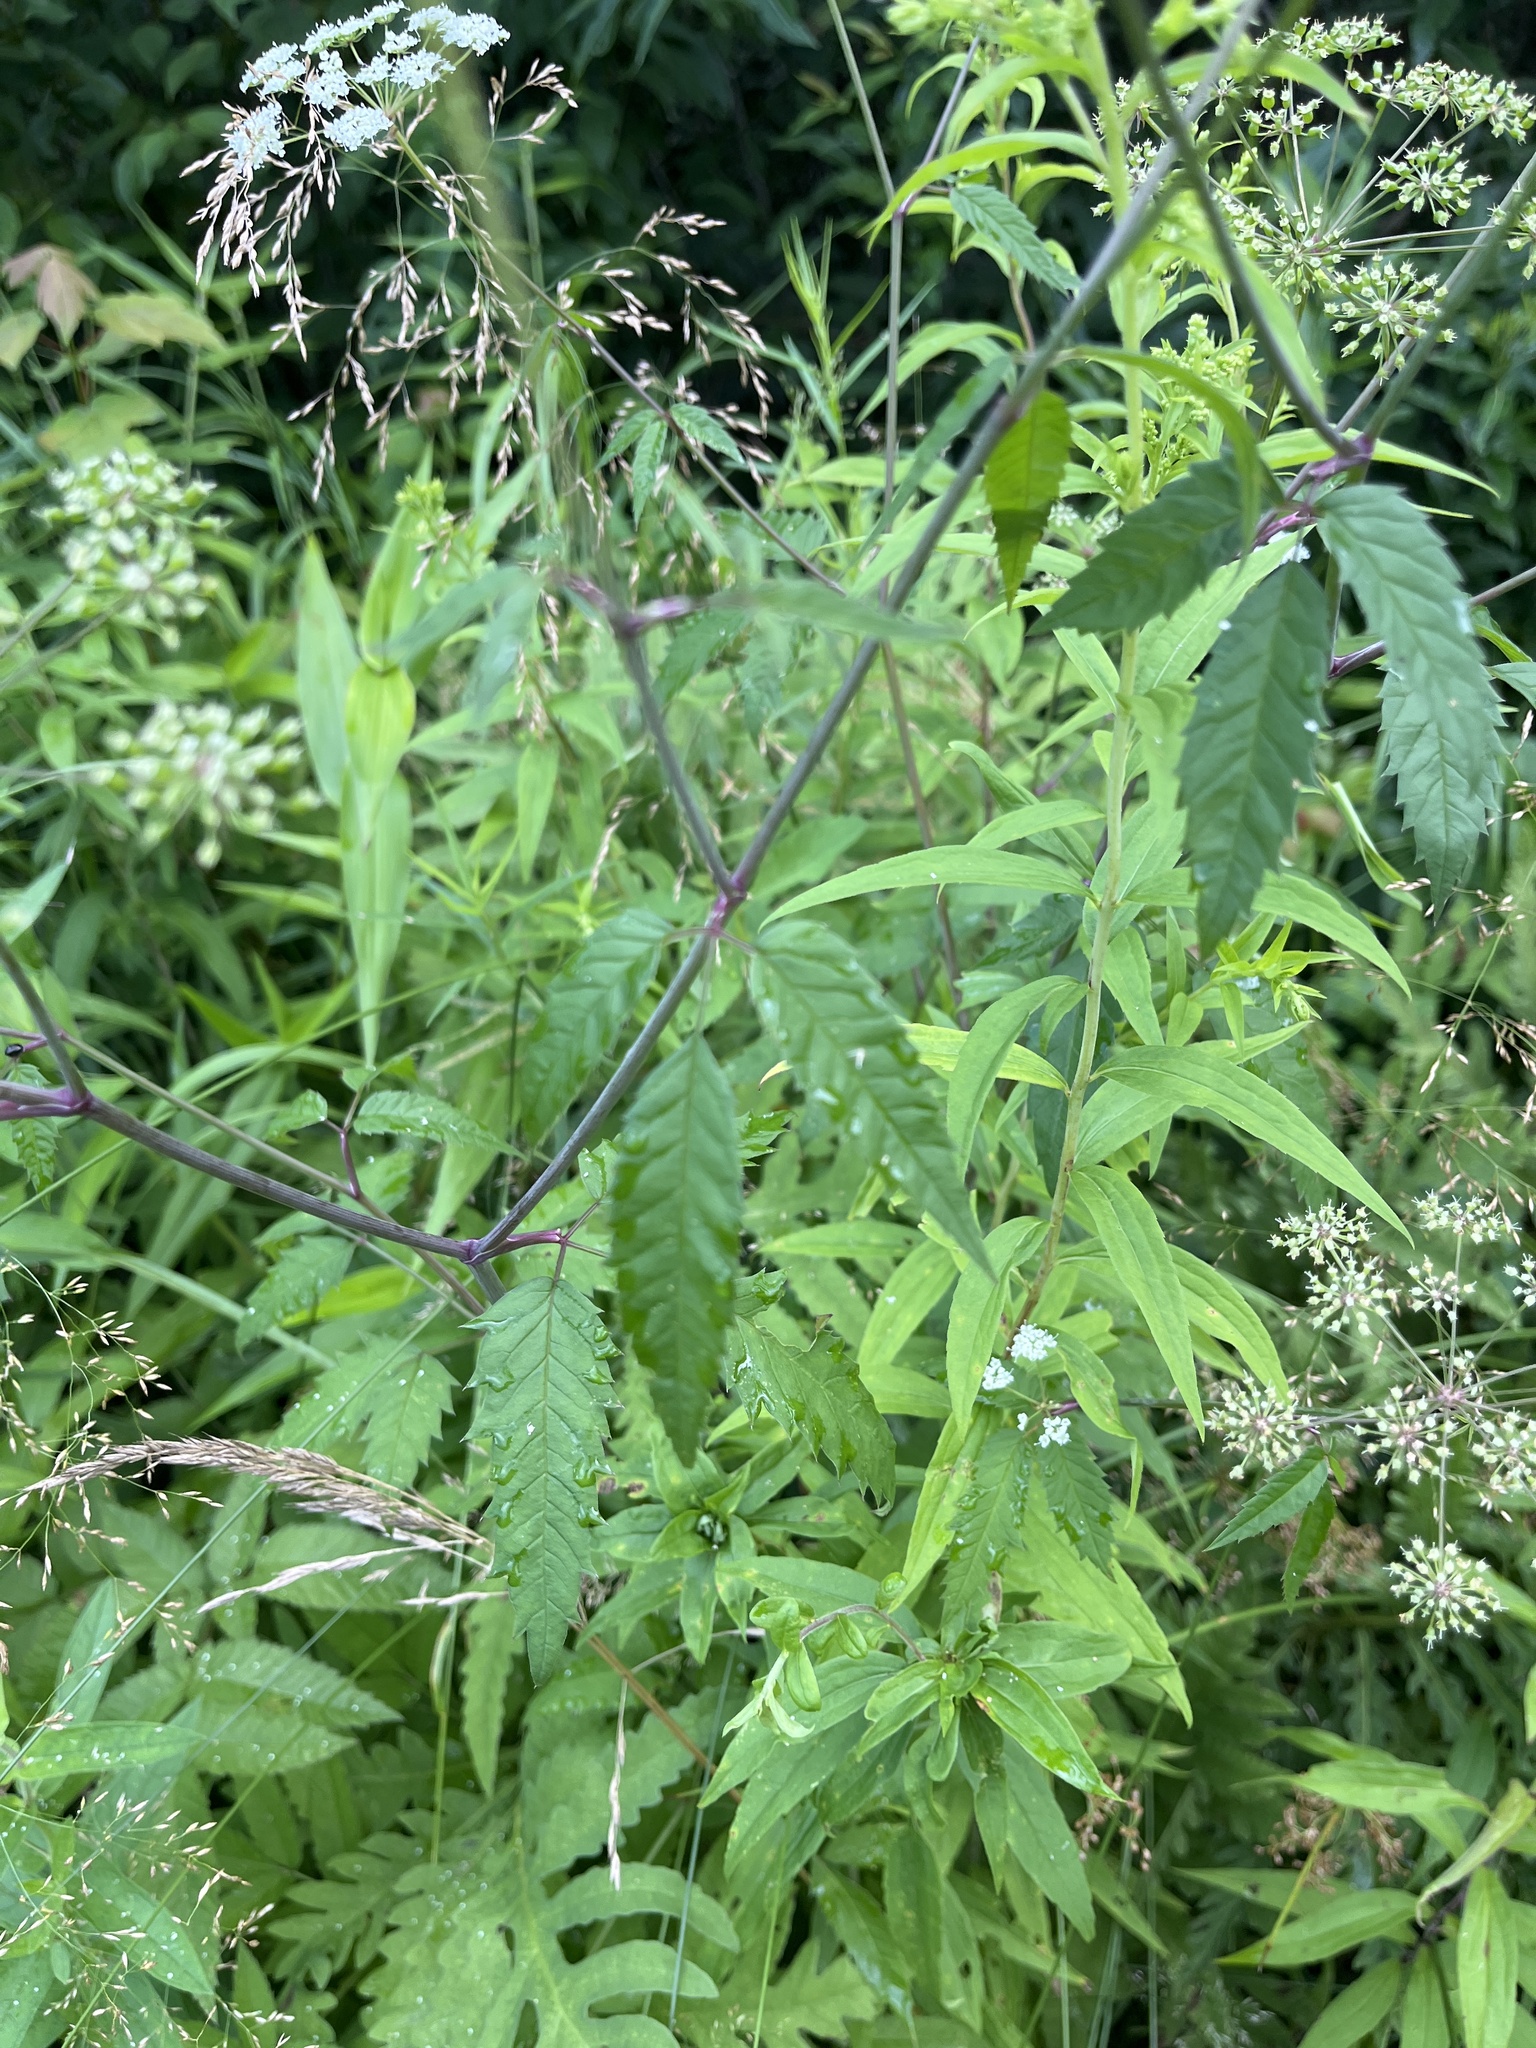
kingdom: Plantae
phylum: Tracheophyta
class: Magnoliopsida
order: Apiales
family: Apiaceae
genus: Cicuta
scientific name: Cicuta maculata
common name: Spotted cowbane
